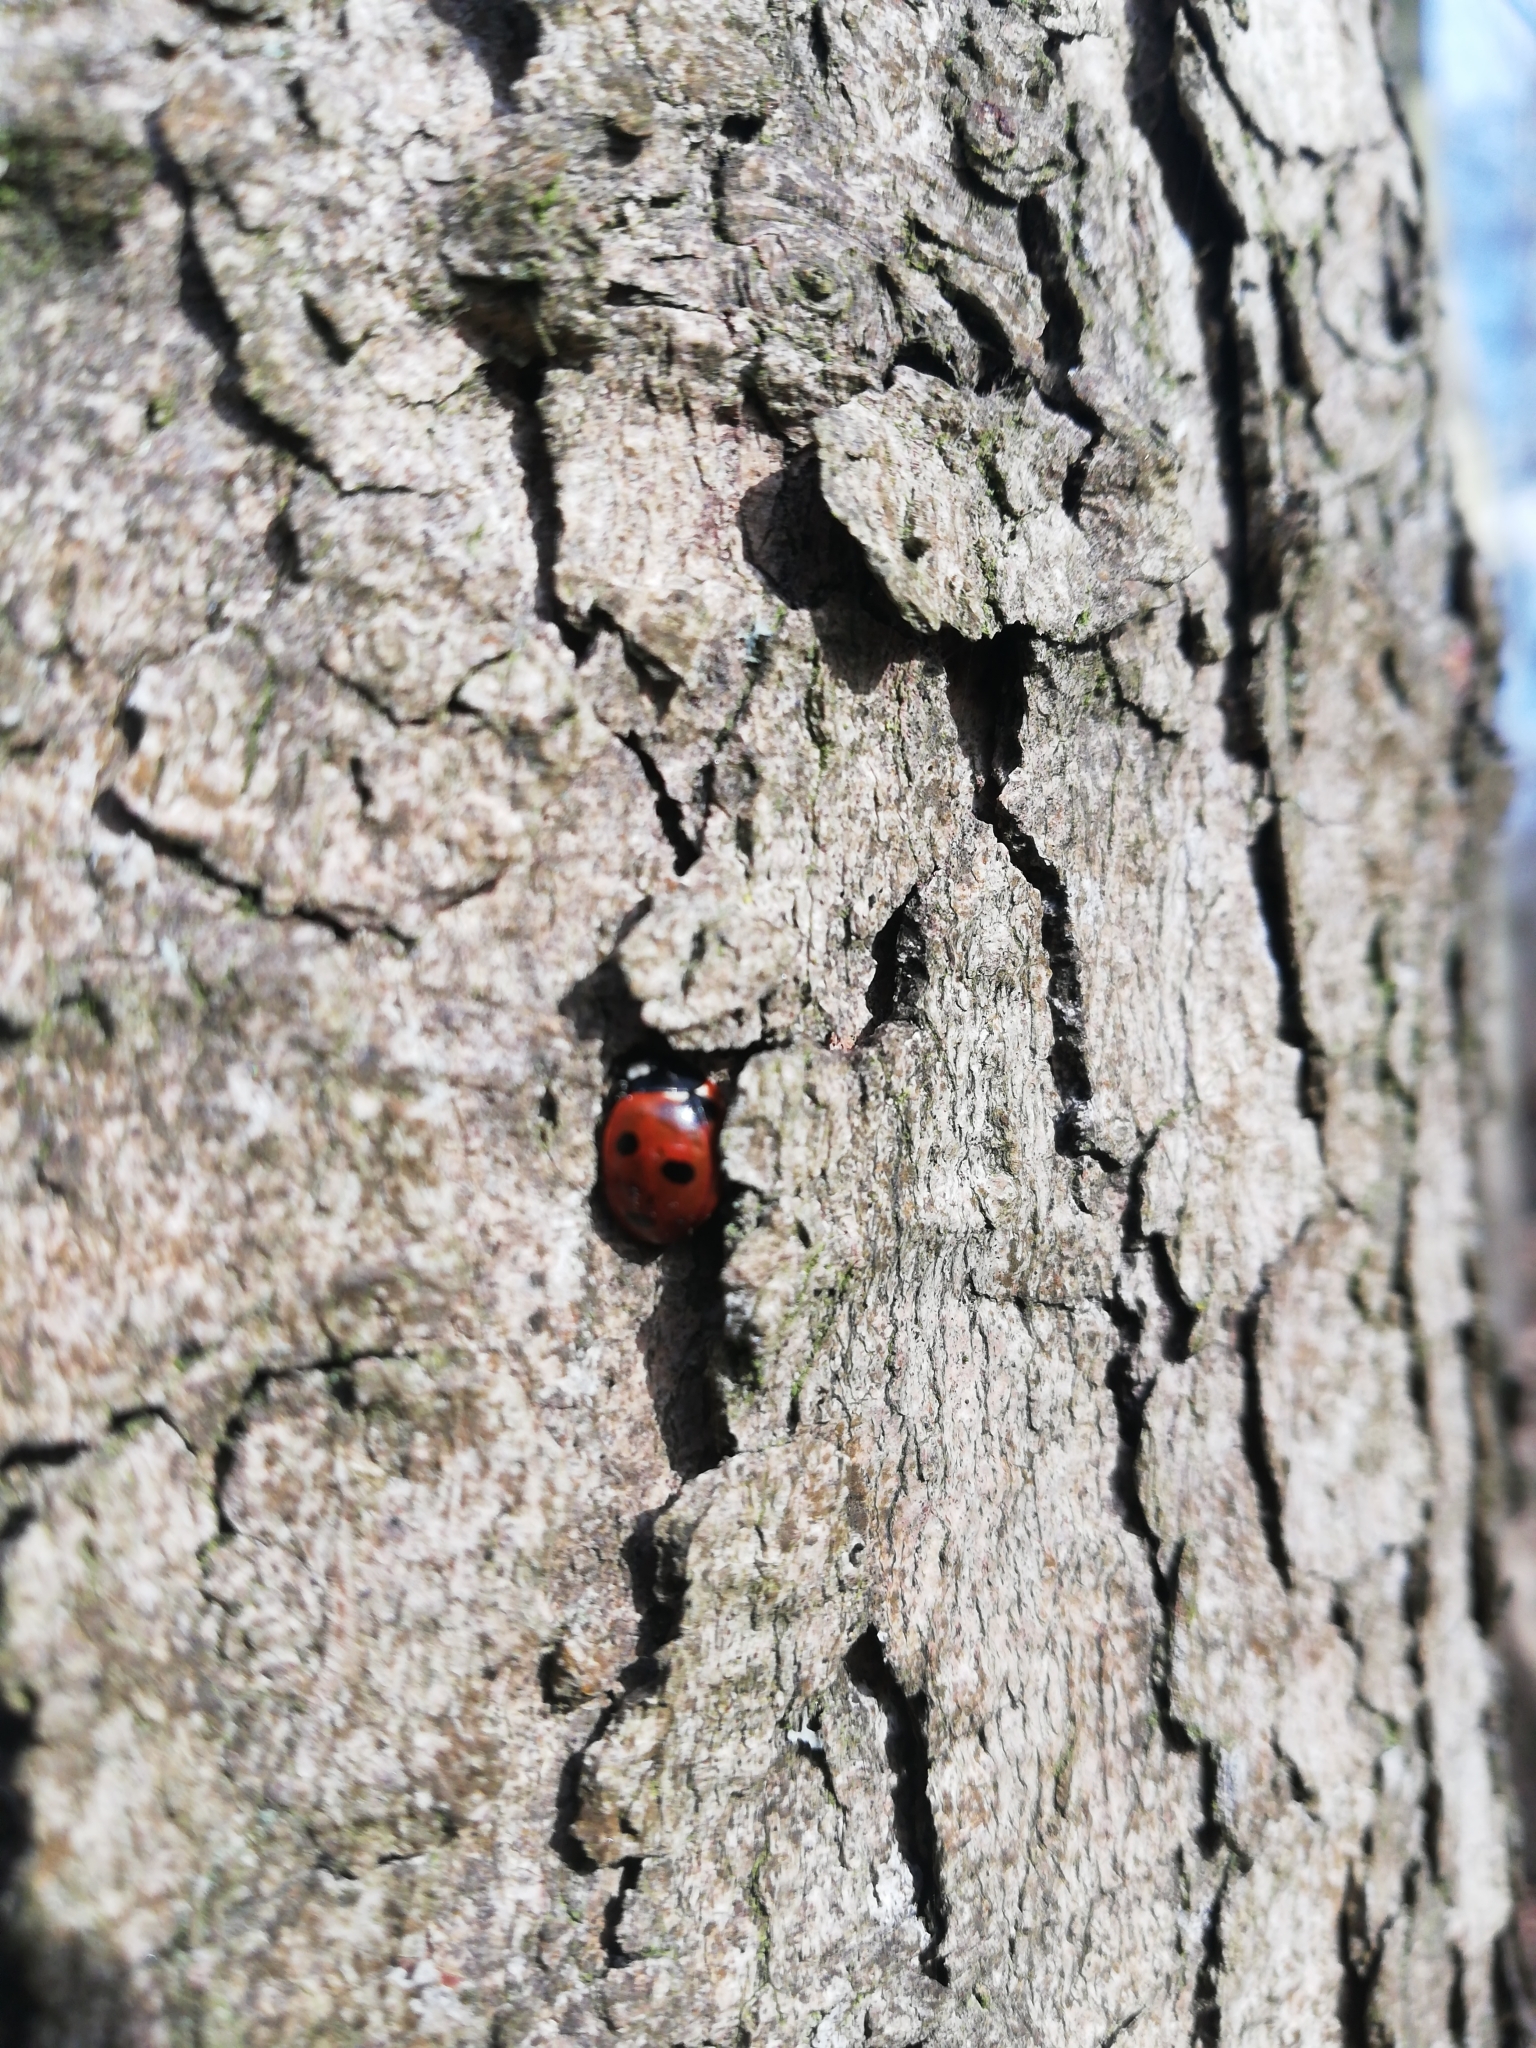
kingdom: Animalia
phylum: Arthropoda
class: Insecta
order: Coleoptera
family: Coccinellidae
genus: Coccinella
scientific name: Coccinella septempunctata
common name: Sevenspotted lady beetle
